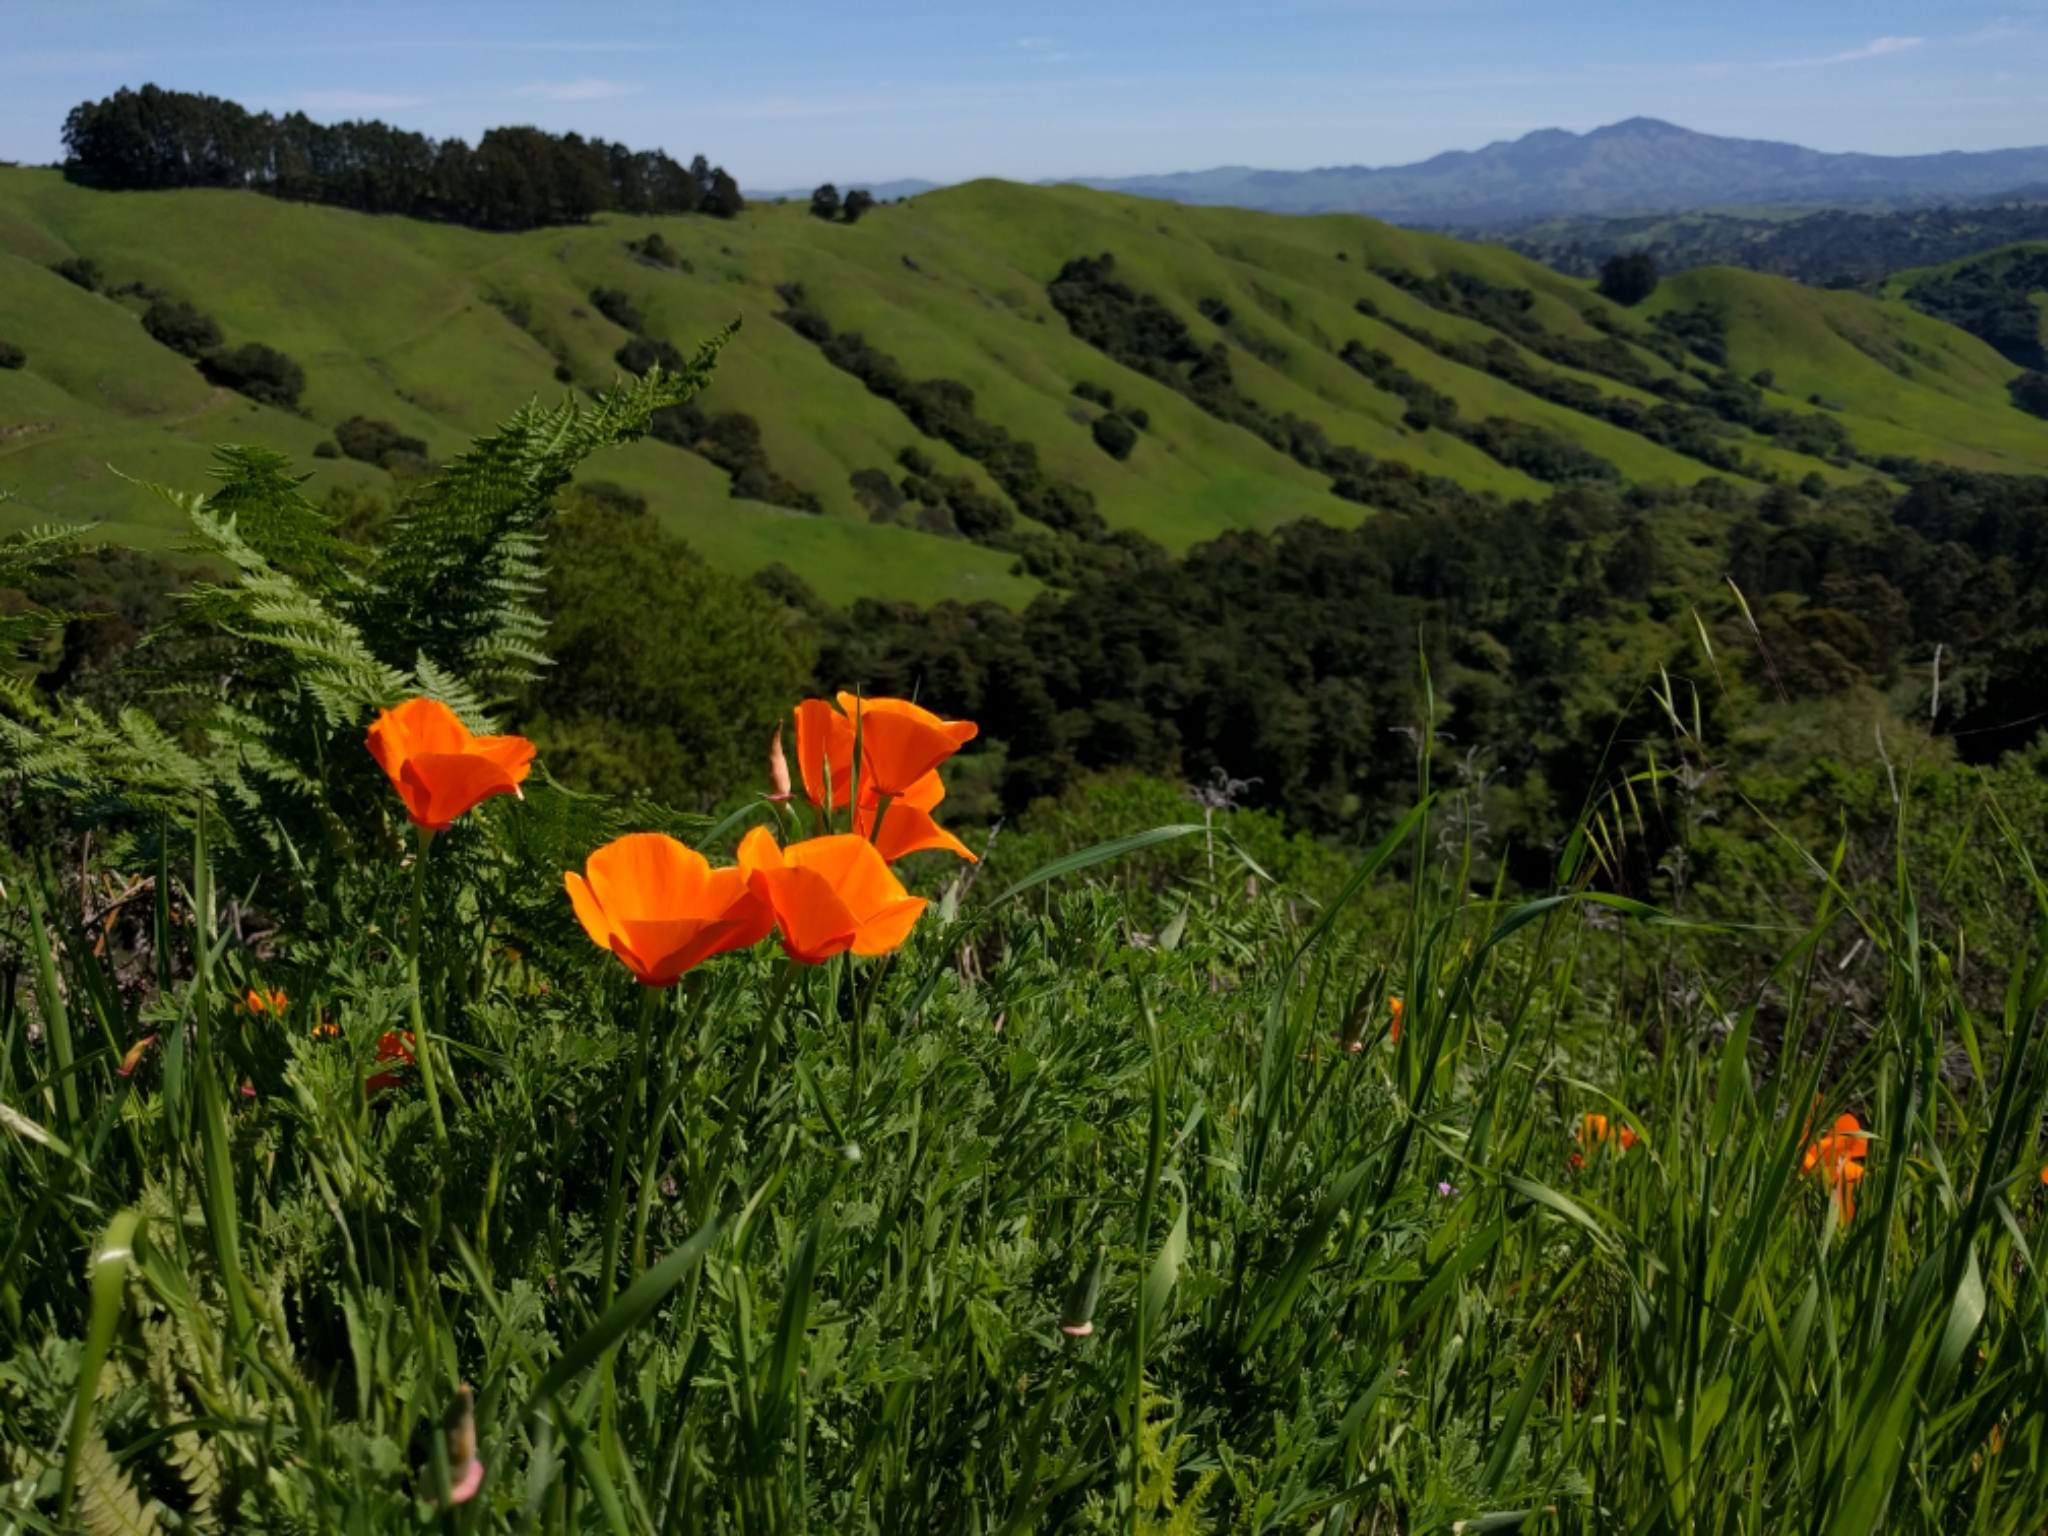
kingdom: Plantae
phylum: Tracheophyta
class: Magnoliopsida
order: Ranunculales
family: Papaveraceae
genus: Eschscholzia
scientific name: Eschscholzia californica
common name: California poppy
